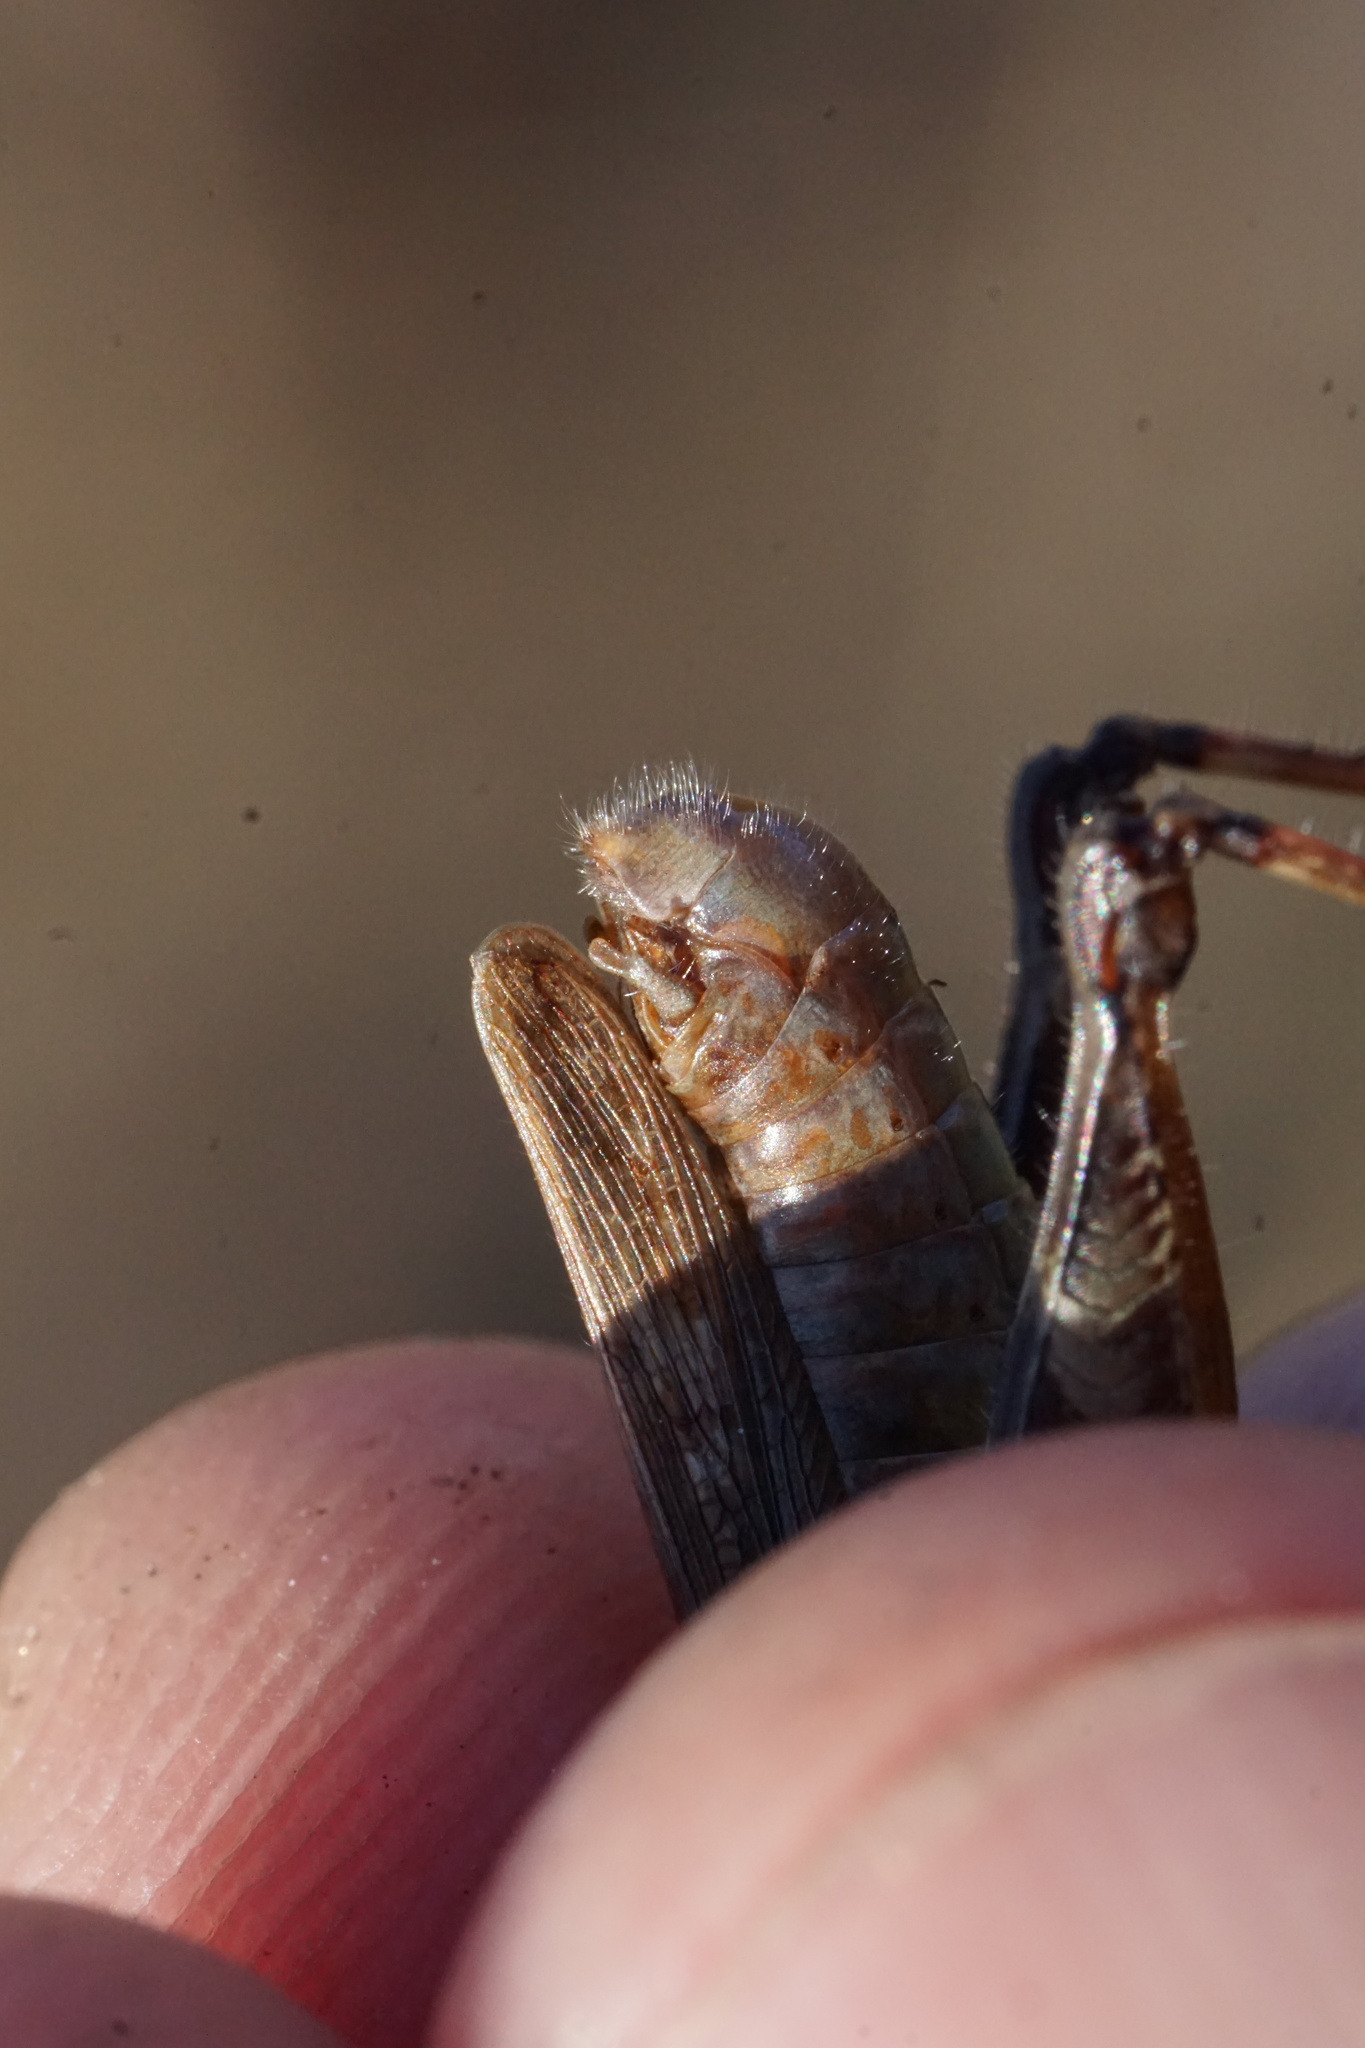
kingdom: Animalia
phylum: Arthropoda
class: Insecta
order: Orthoptera
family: Acrididae
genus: Melanoplus
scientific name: Melanoplus keeleri
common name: Keeler grasshopper
